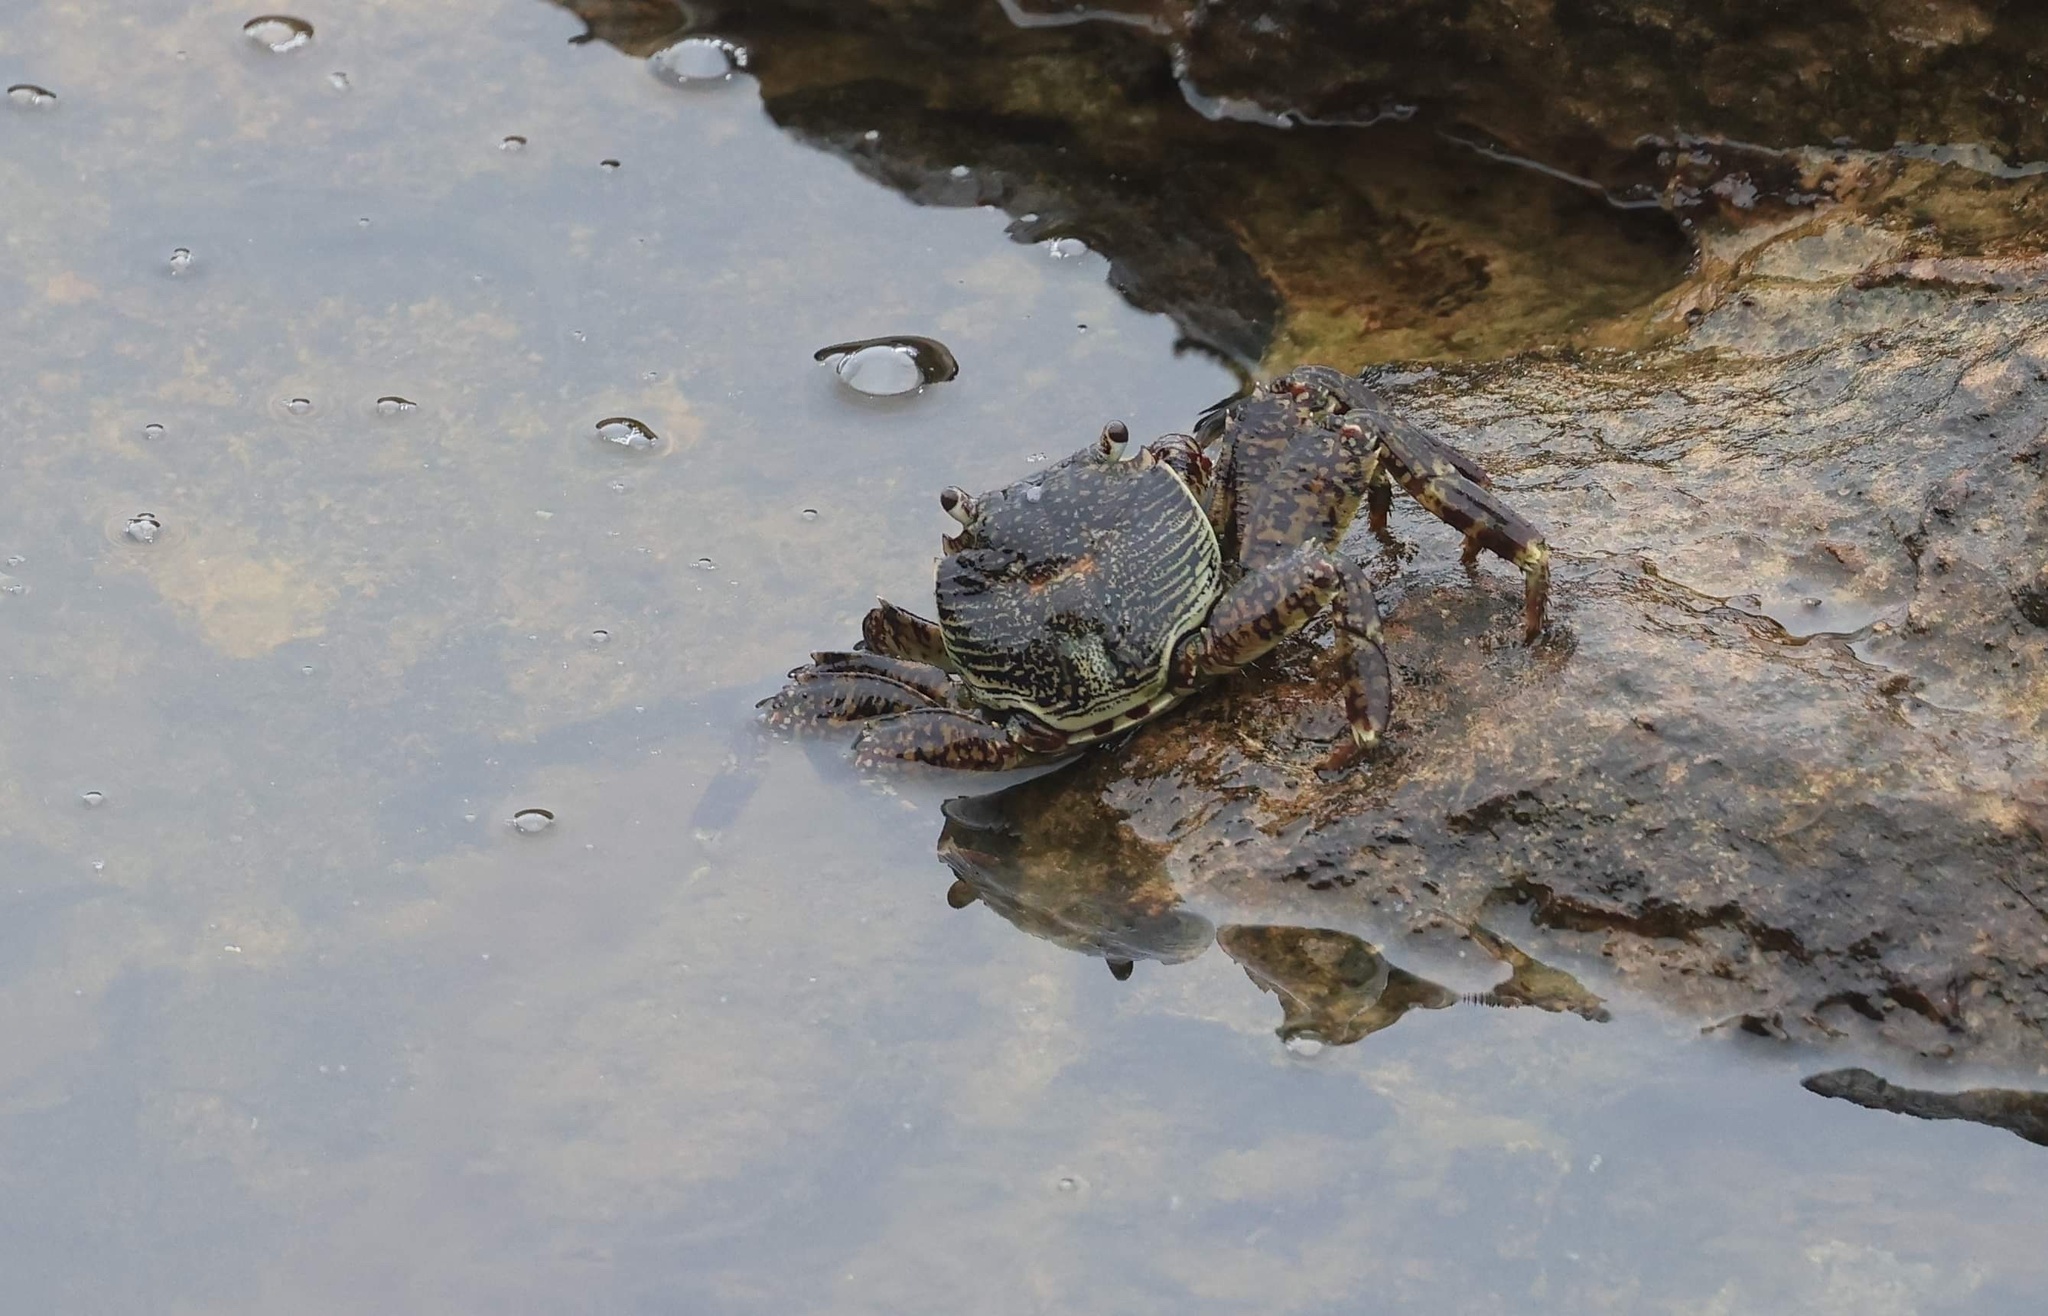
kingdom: Animalia
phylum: Arthropoda
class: Malacostraca
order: Decapoda
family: Grapsidae
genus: Grapsus
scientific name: Grapsus albolineatus
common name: Mottled lightfoot crab
